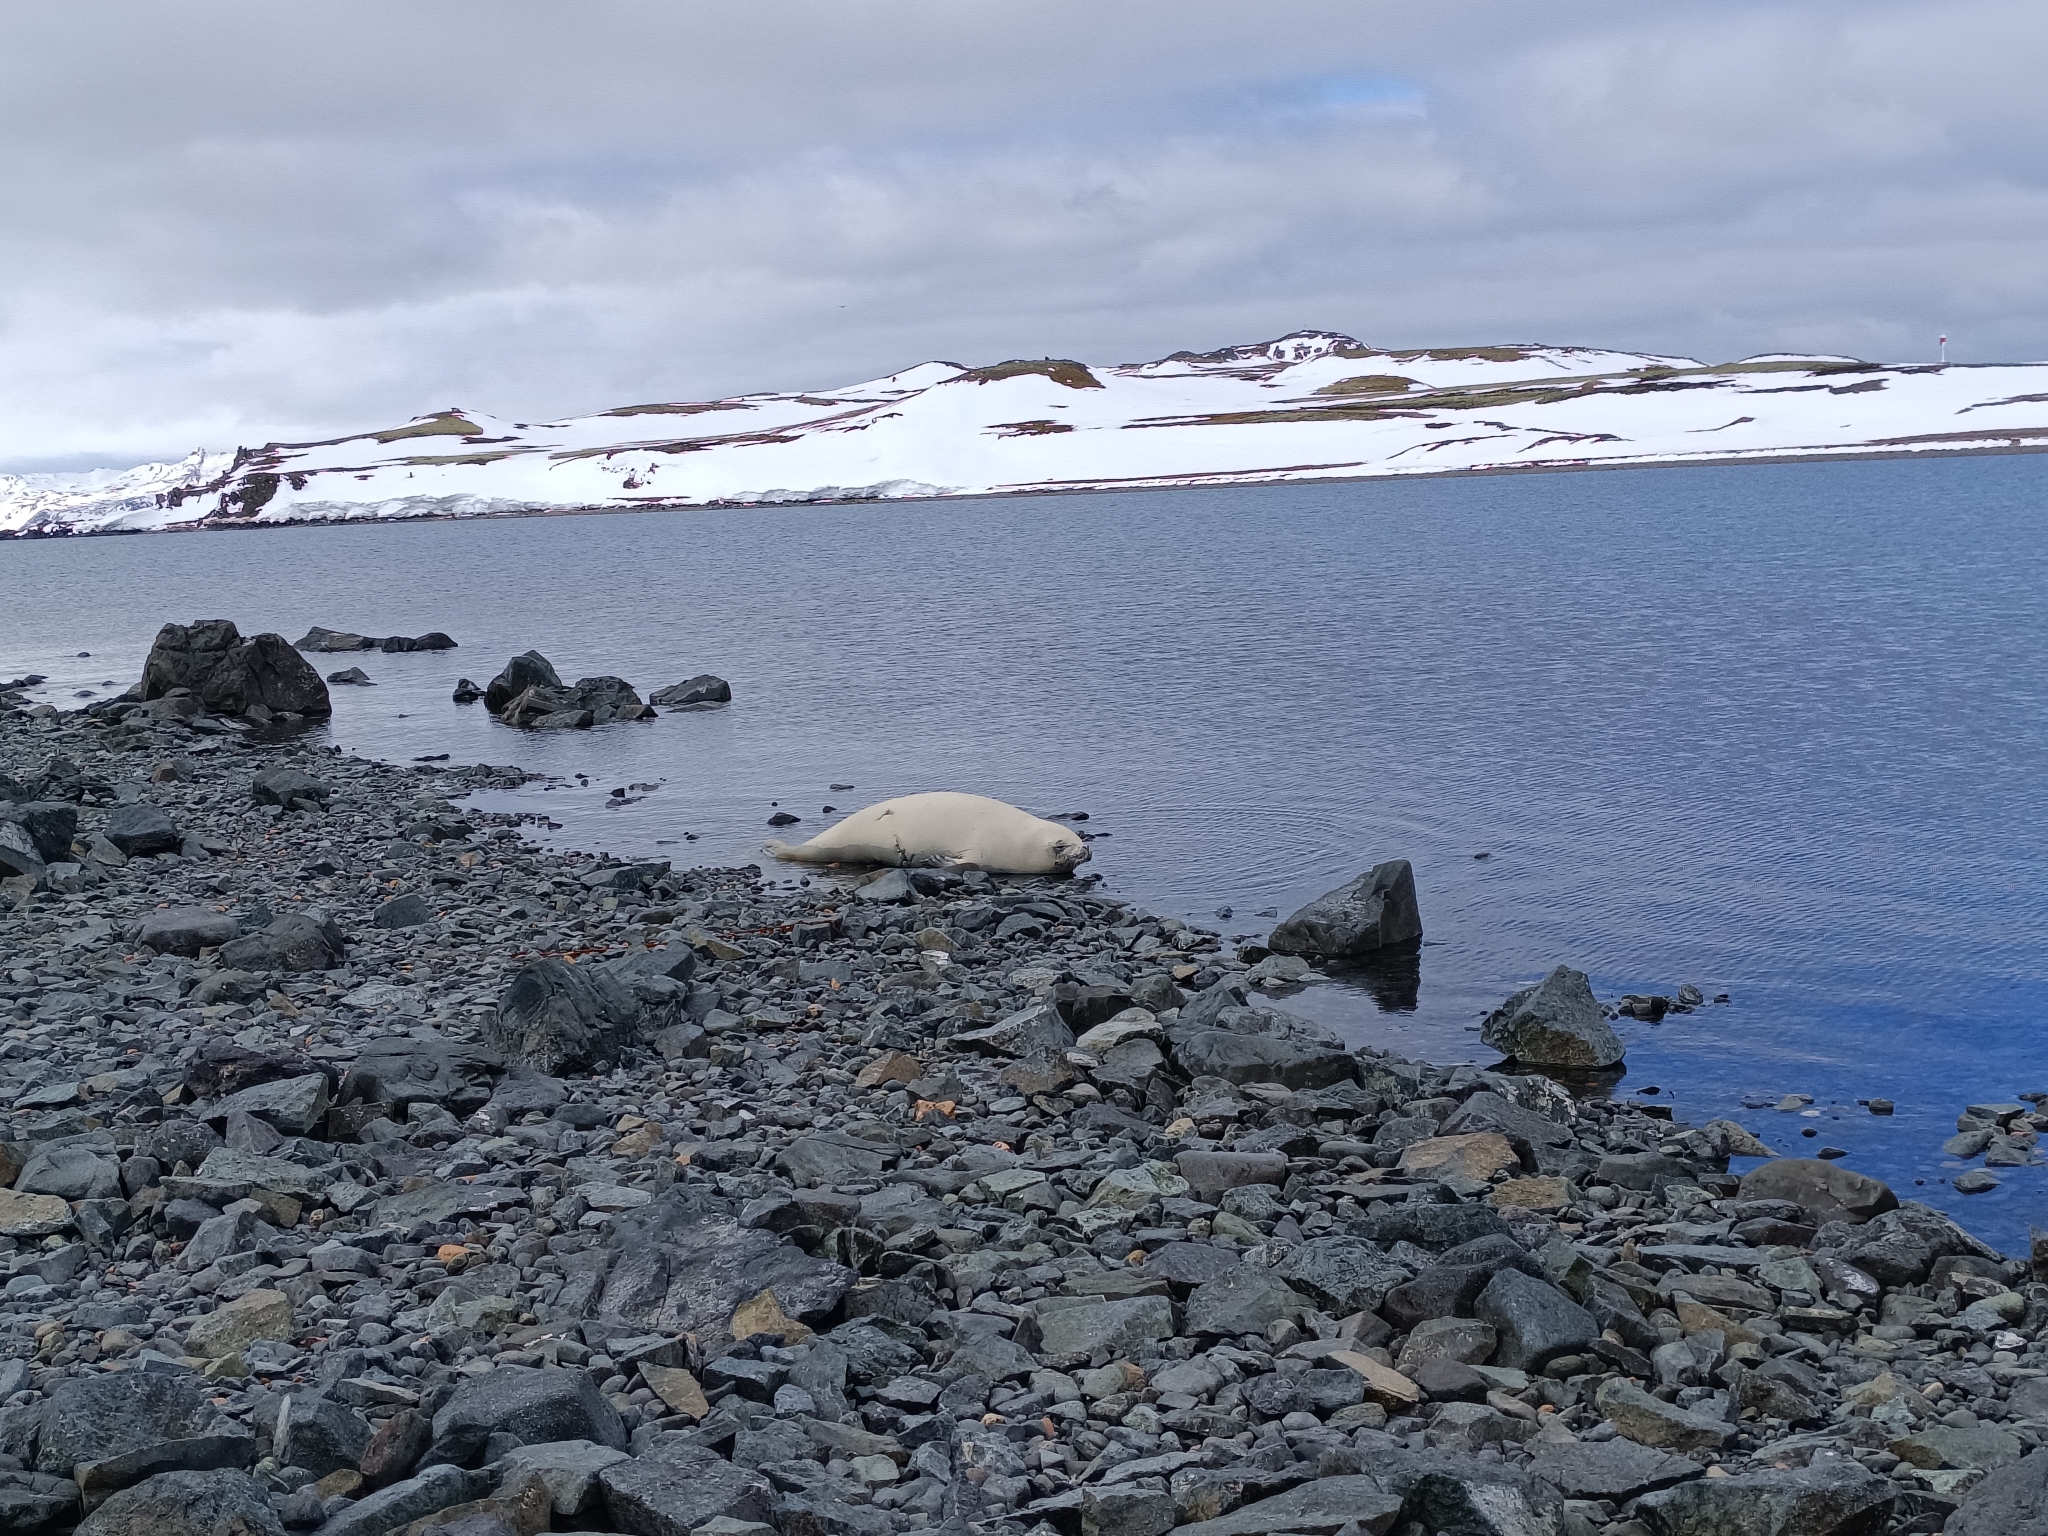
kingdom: Animalia
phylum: Chordata
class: Mammalia
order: Carnivora
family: Phocidae
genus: Lobodon
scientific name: Lobodon carcinophaga
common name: Crabeater seal
